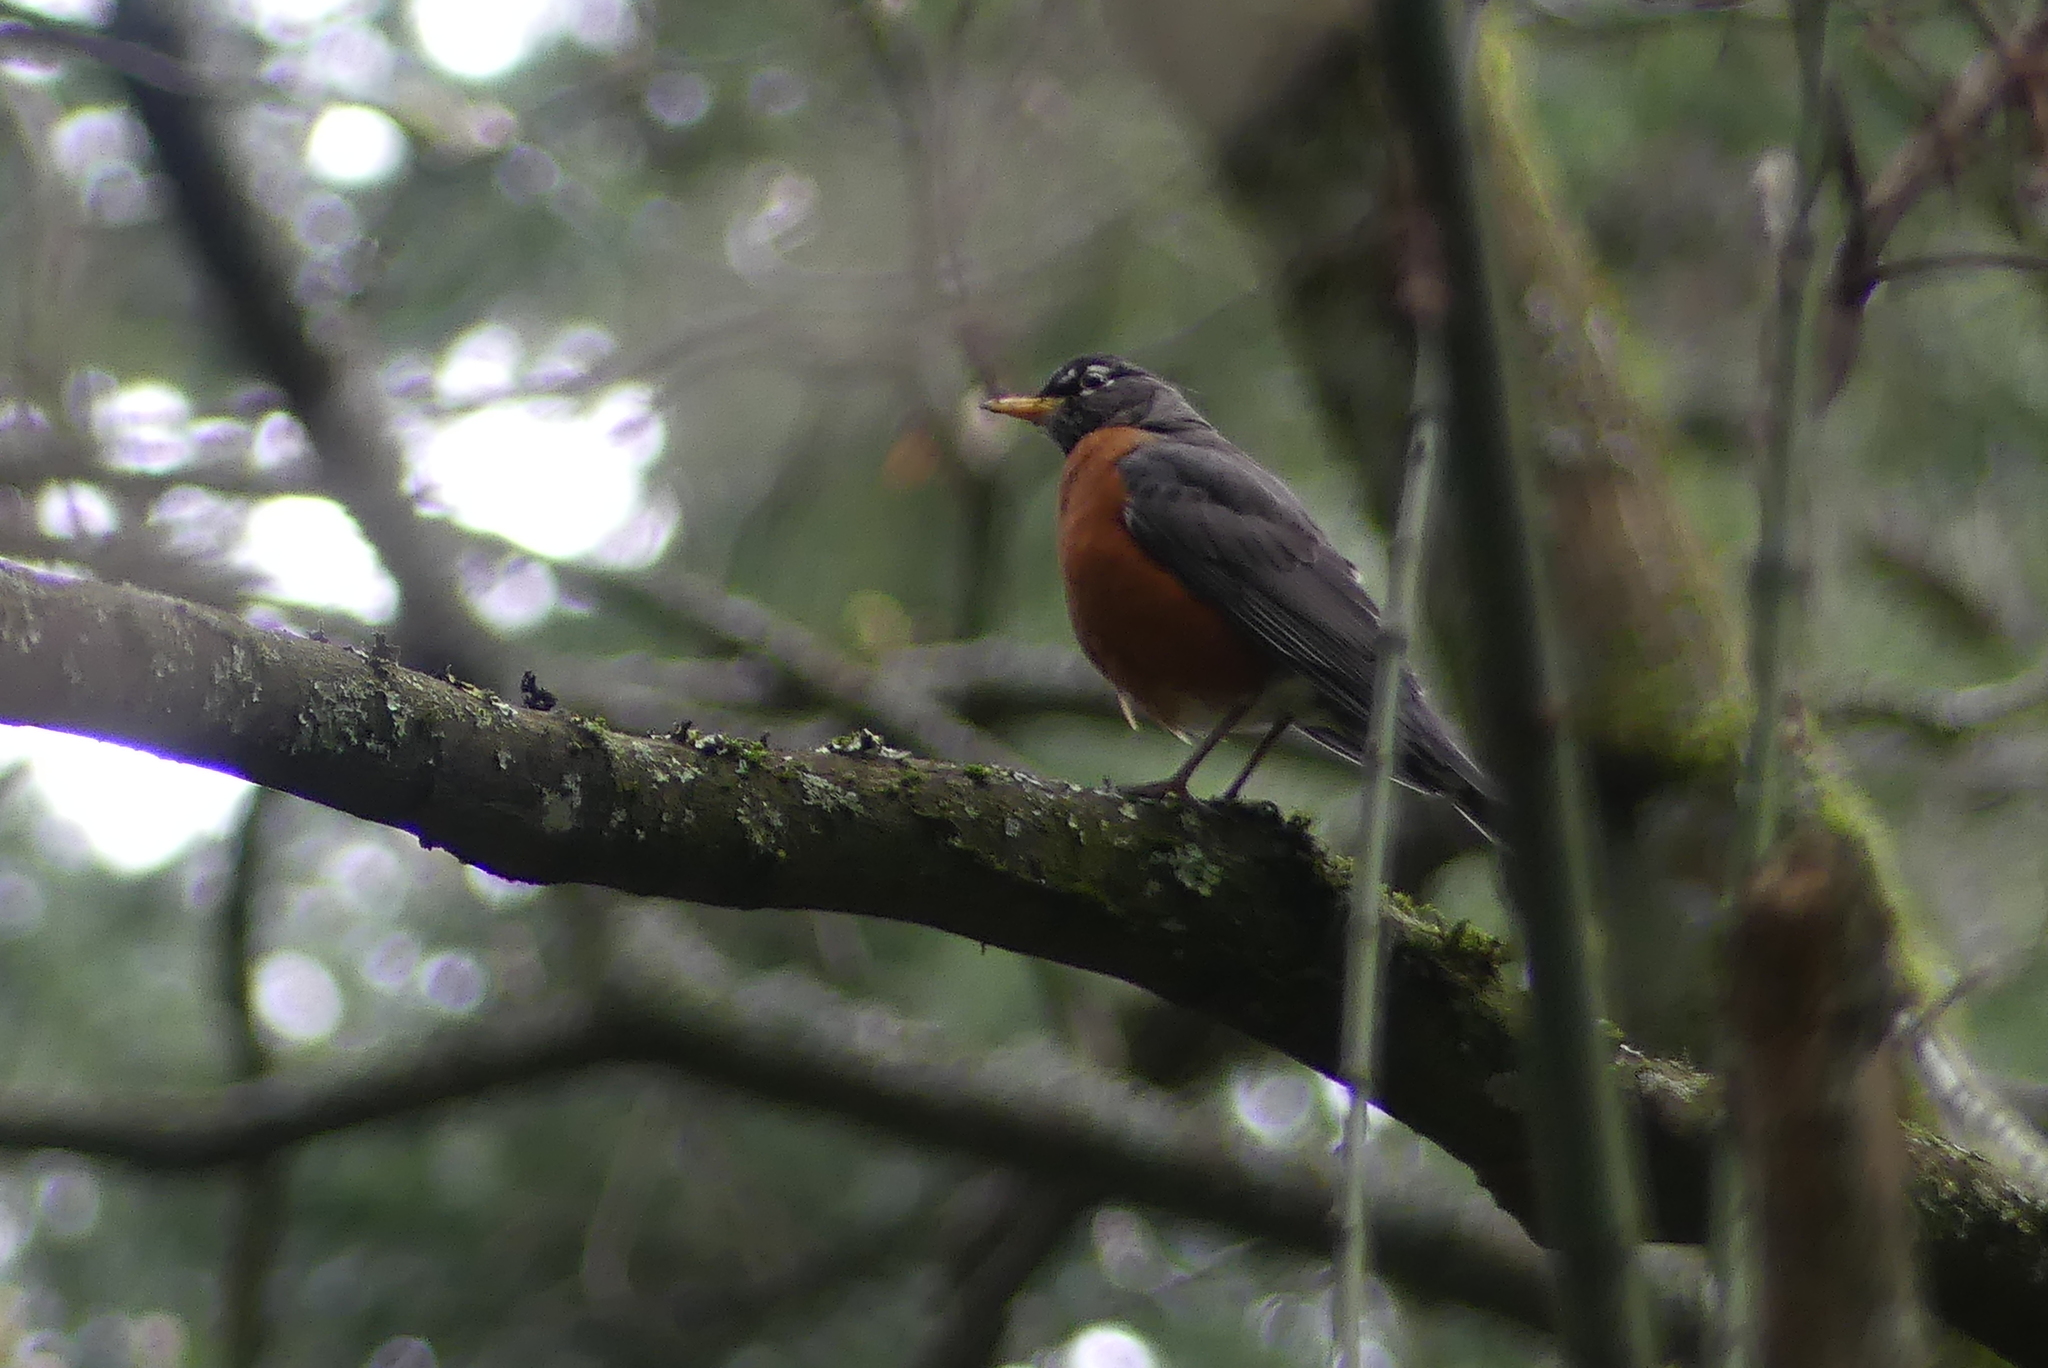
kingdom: Animalia
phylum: Chordata
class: Aves
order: Passeriformes
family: Turdidae
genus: Turdus
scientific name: Turdus migratorius
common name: American robin
